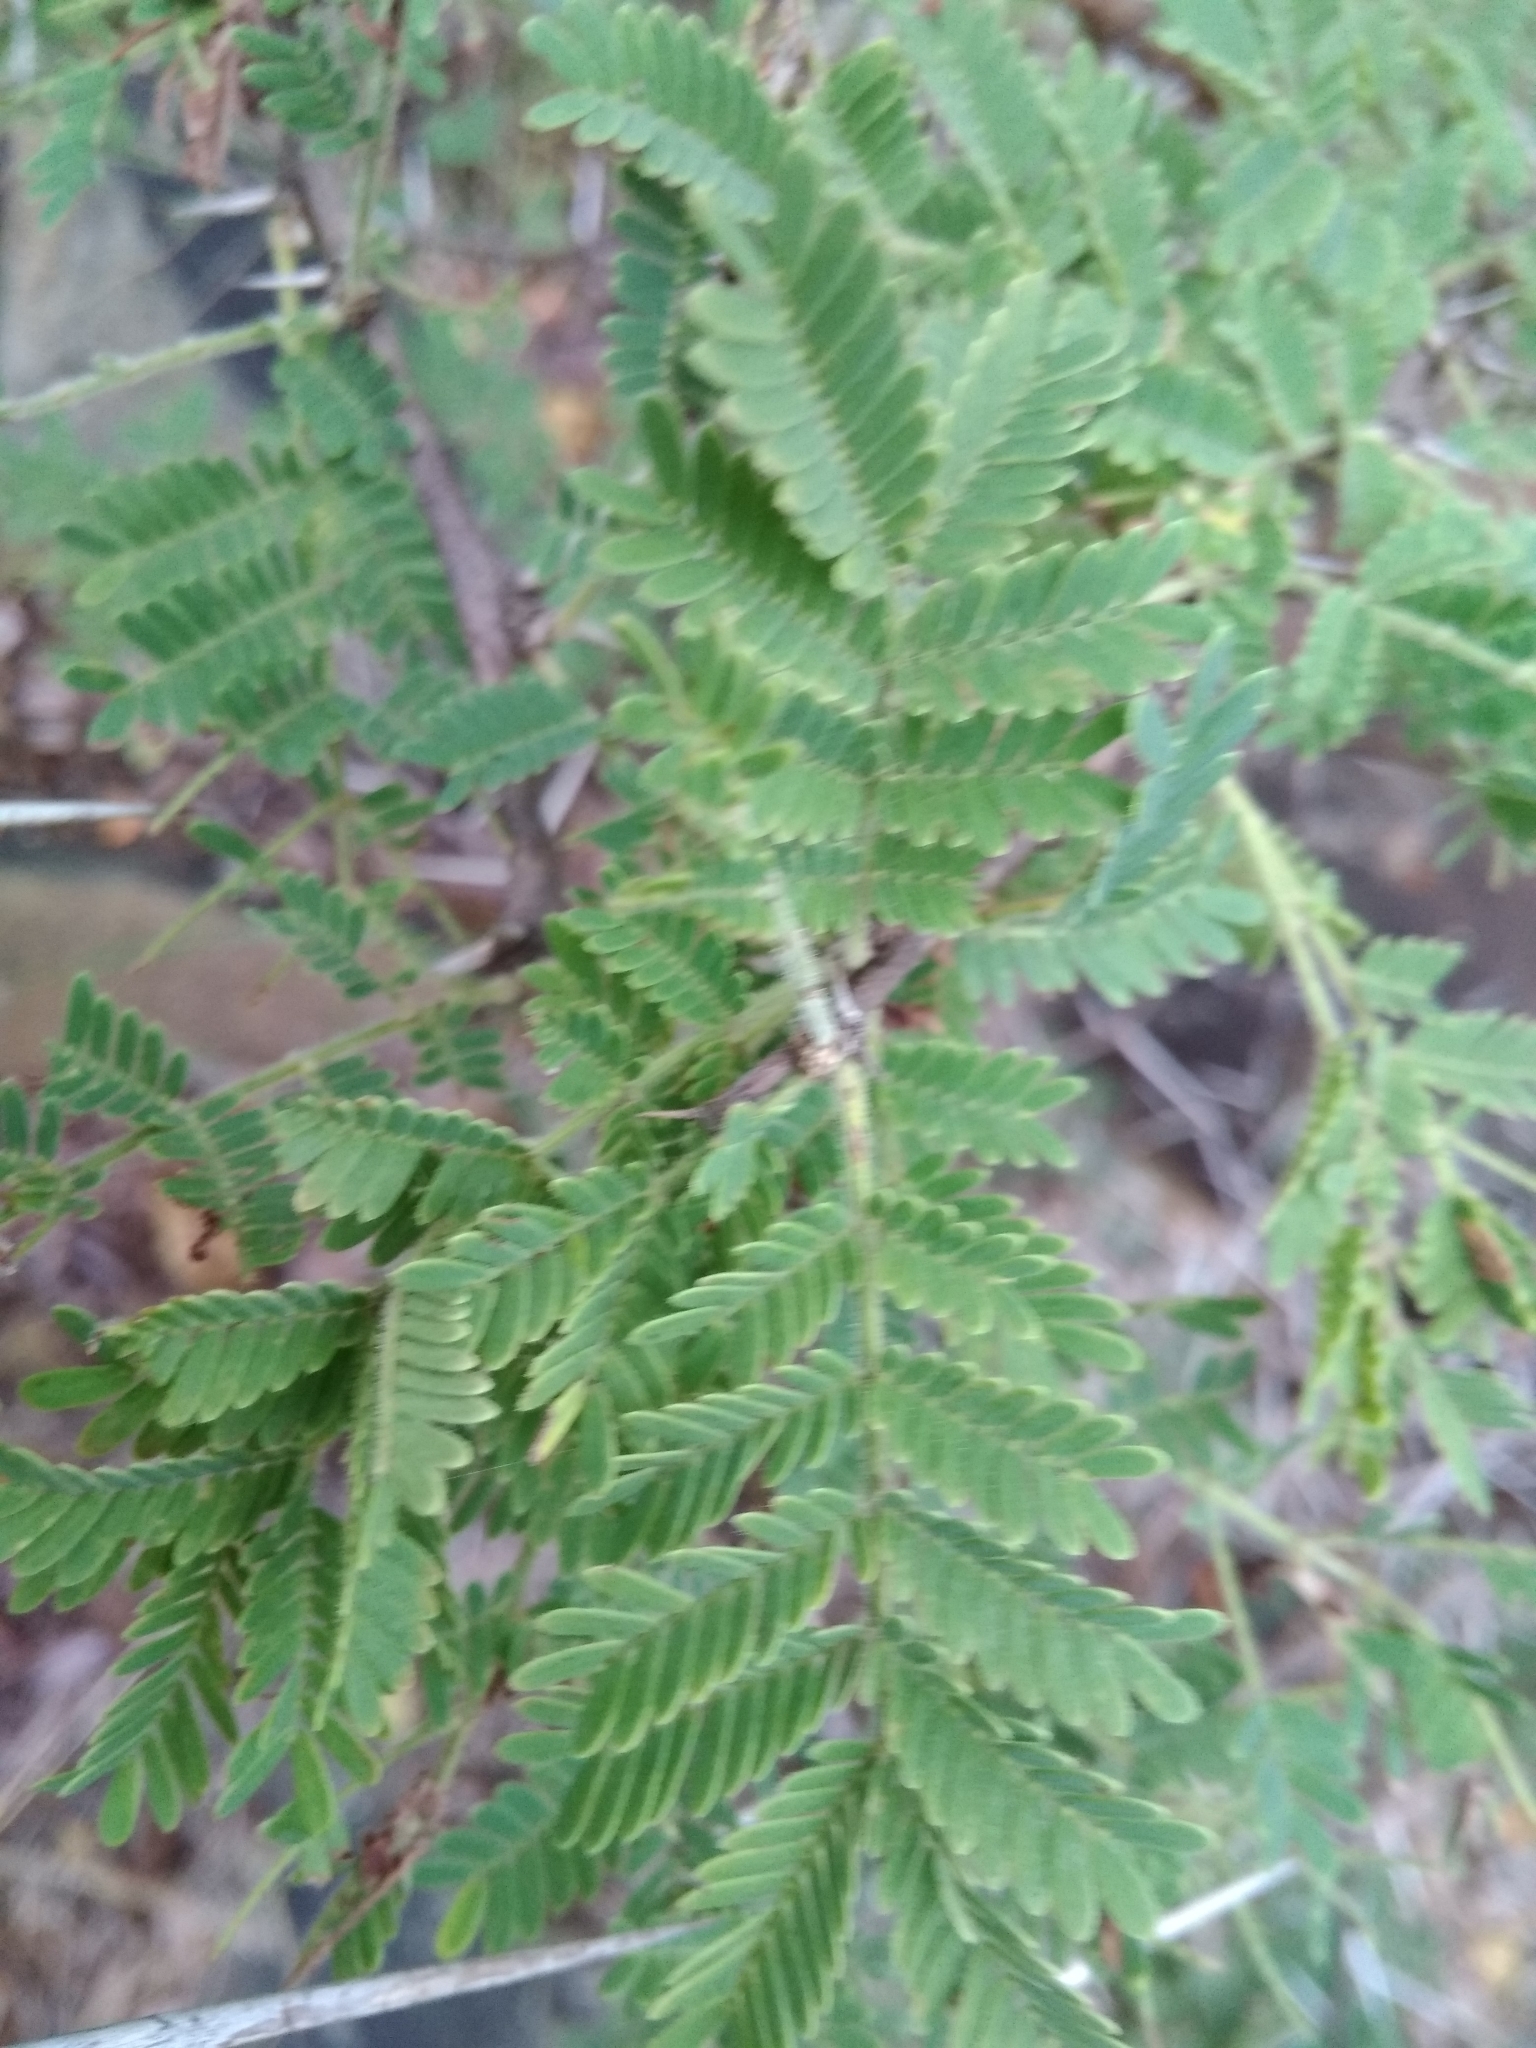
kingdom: Plantae
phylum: Tracheophyta
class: Magnoliopsida
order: Fabales
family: Fabaceae
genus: Vachellia
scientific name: Vachellia karroo
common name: Sweet thorn
